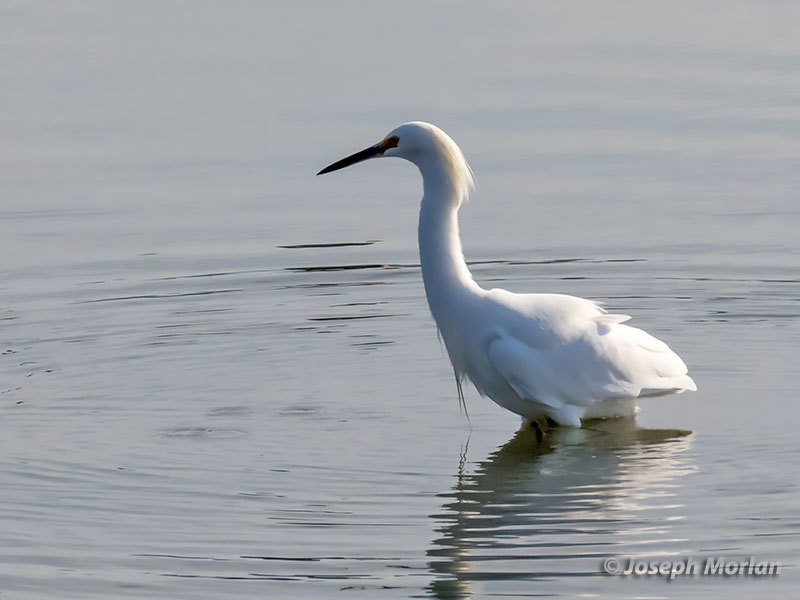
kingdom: Animalia
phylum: Chordata
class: Aves
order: Pelecaniformes
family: Ardeidae
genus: Egretta
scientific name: Egretta thula
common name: Snowy egret
